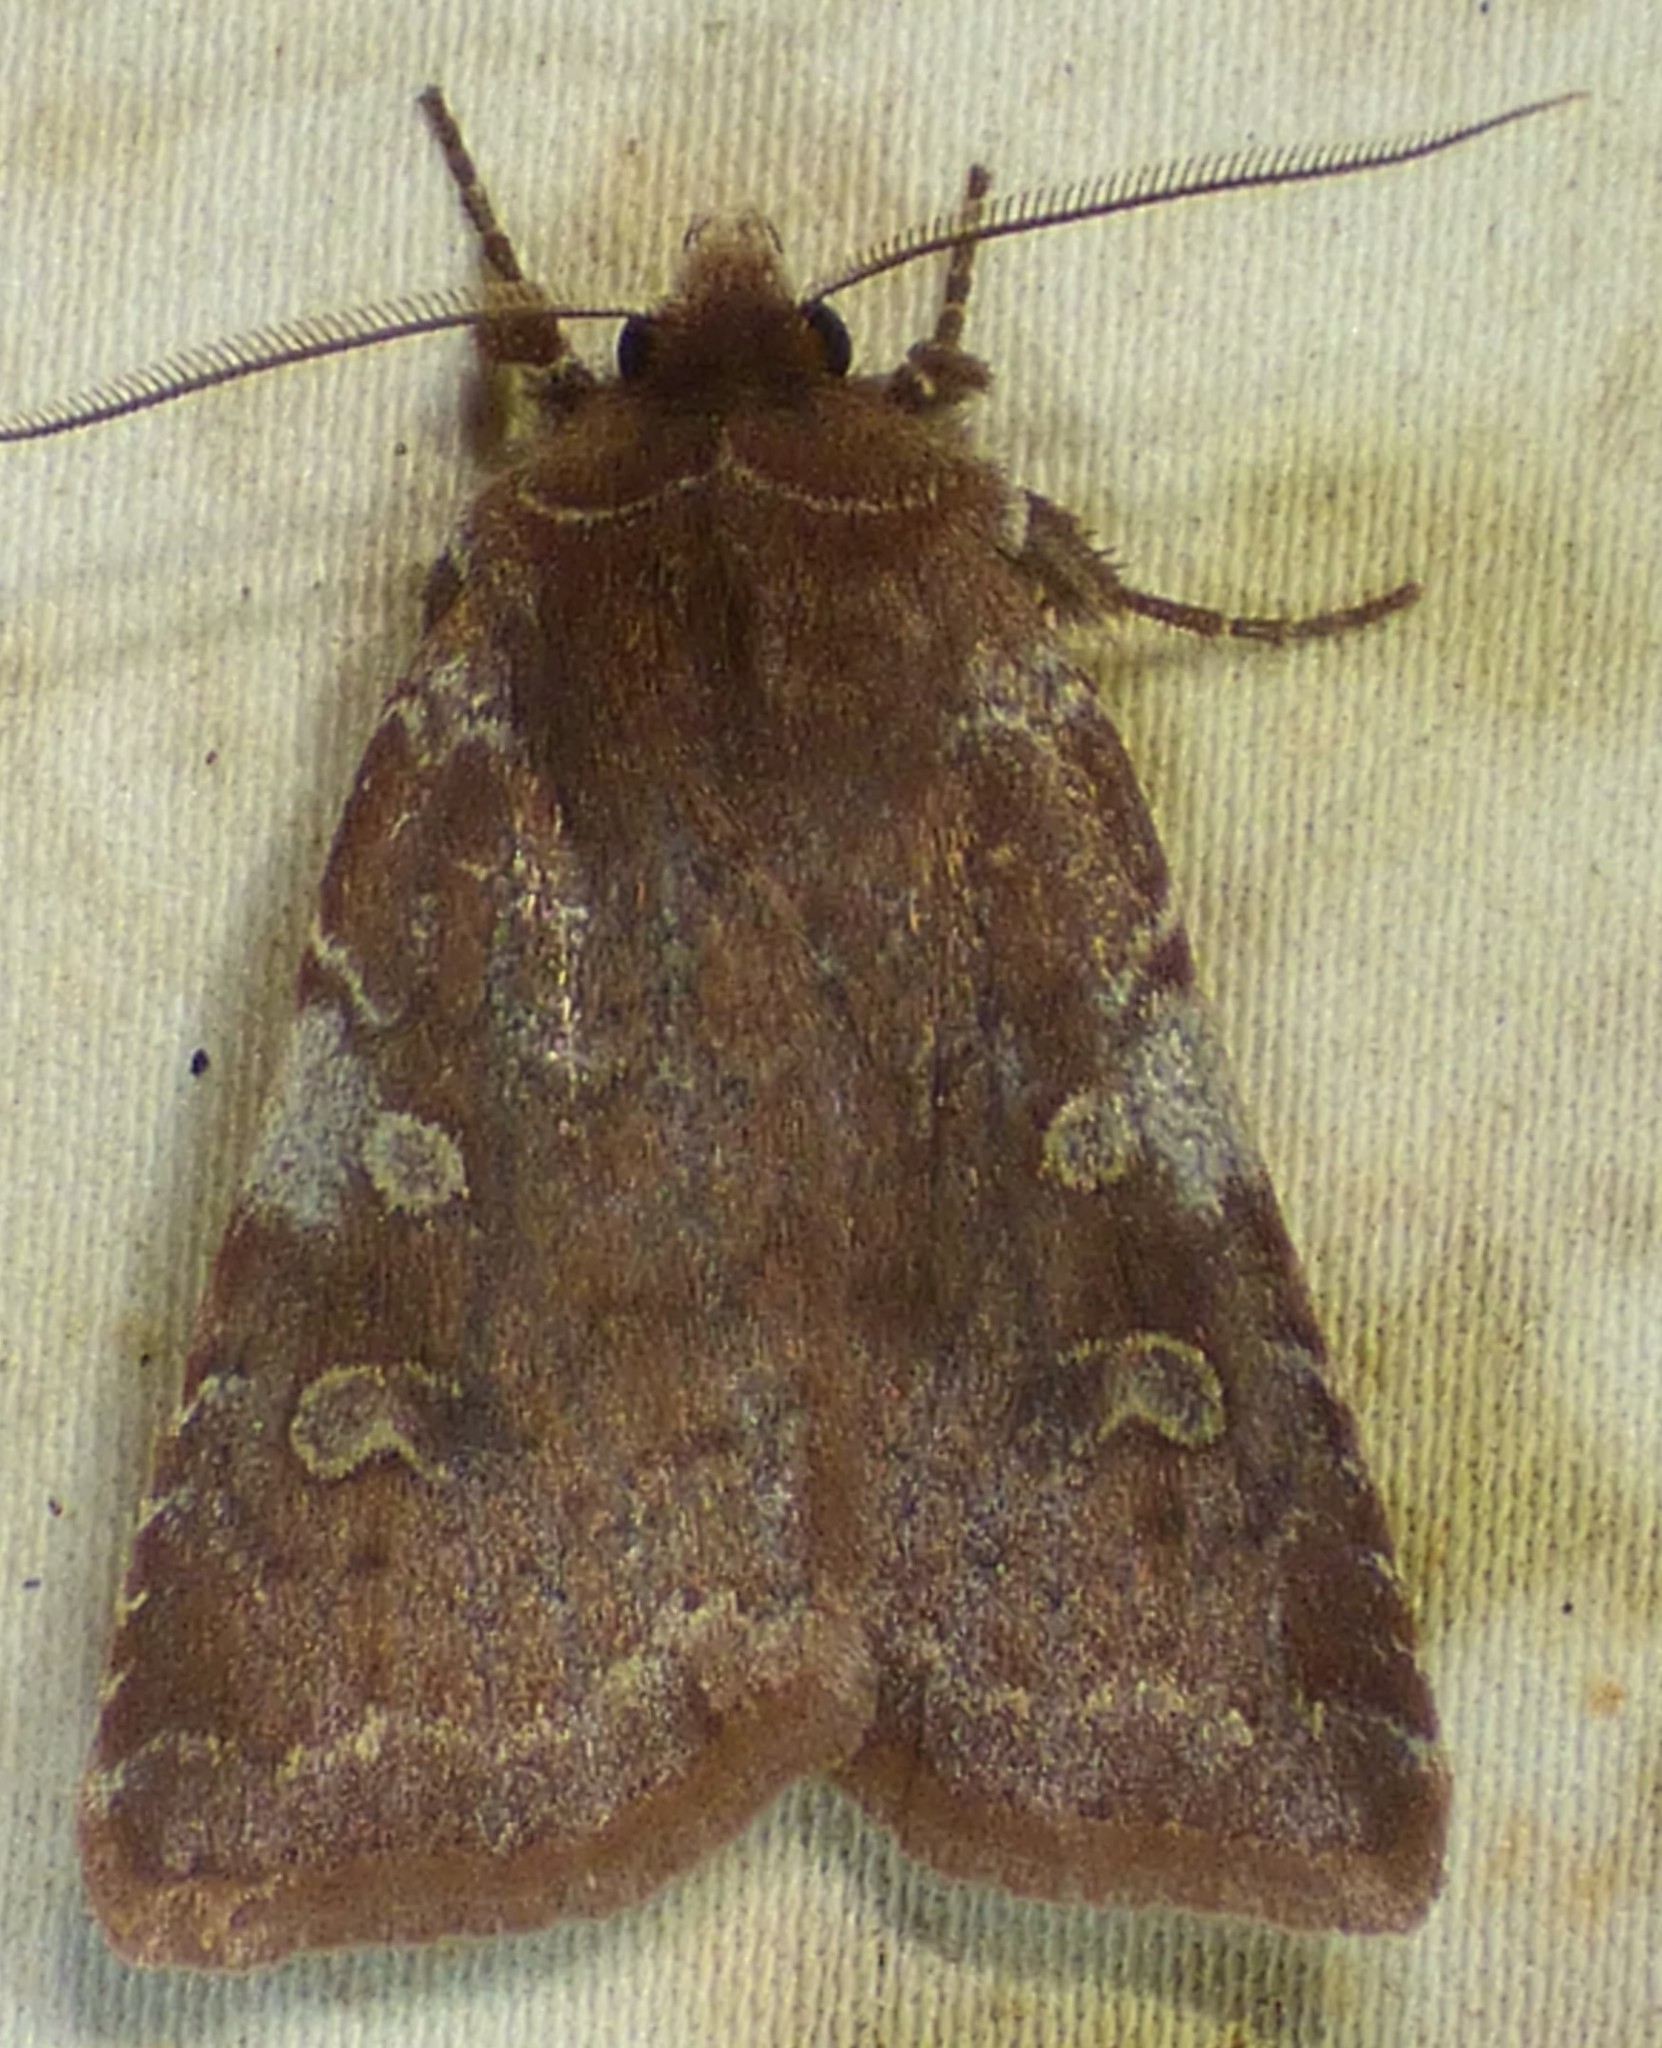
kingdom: Animalia
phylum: Arthropoda
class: Insecta
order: Lepidoptera
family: Noctuidae
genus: Cerastis
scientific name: Cerastis tenebrifera
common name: Reddish speckled dart
